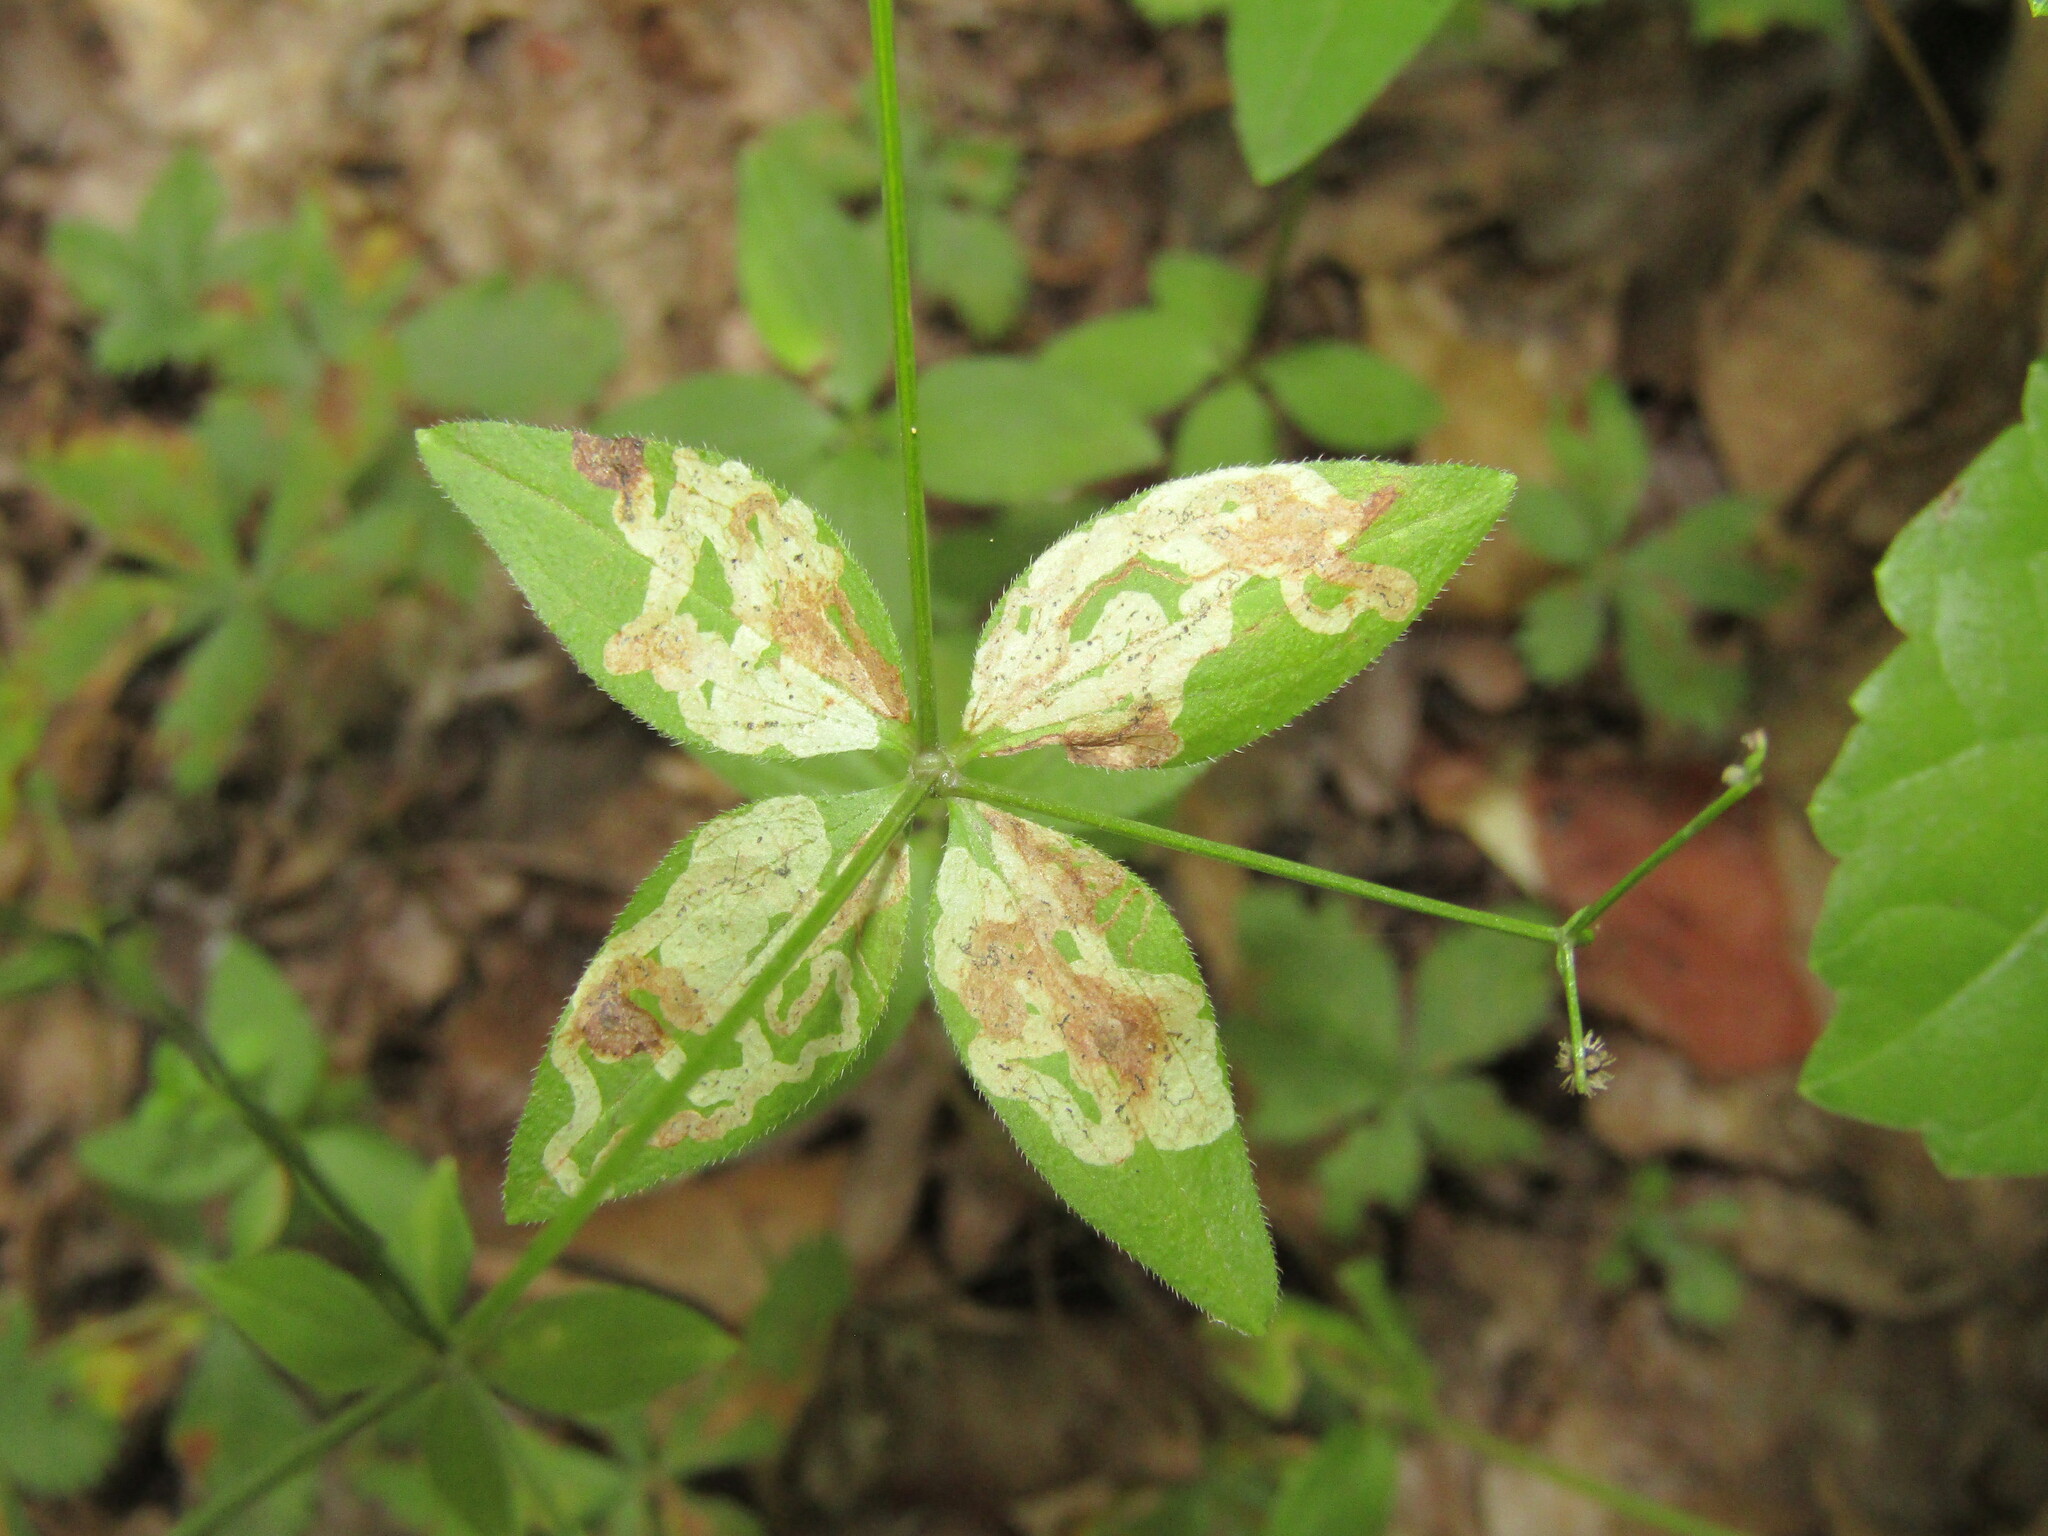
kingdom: Animalia
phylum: Arthropoda
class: Insecta
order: Diptera
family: Agromyzidae
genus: Liriomyza
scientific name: Liriomyza galiivora
